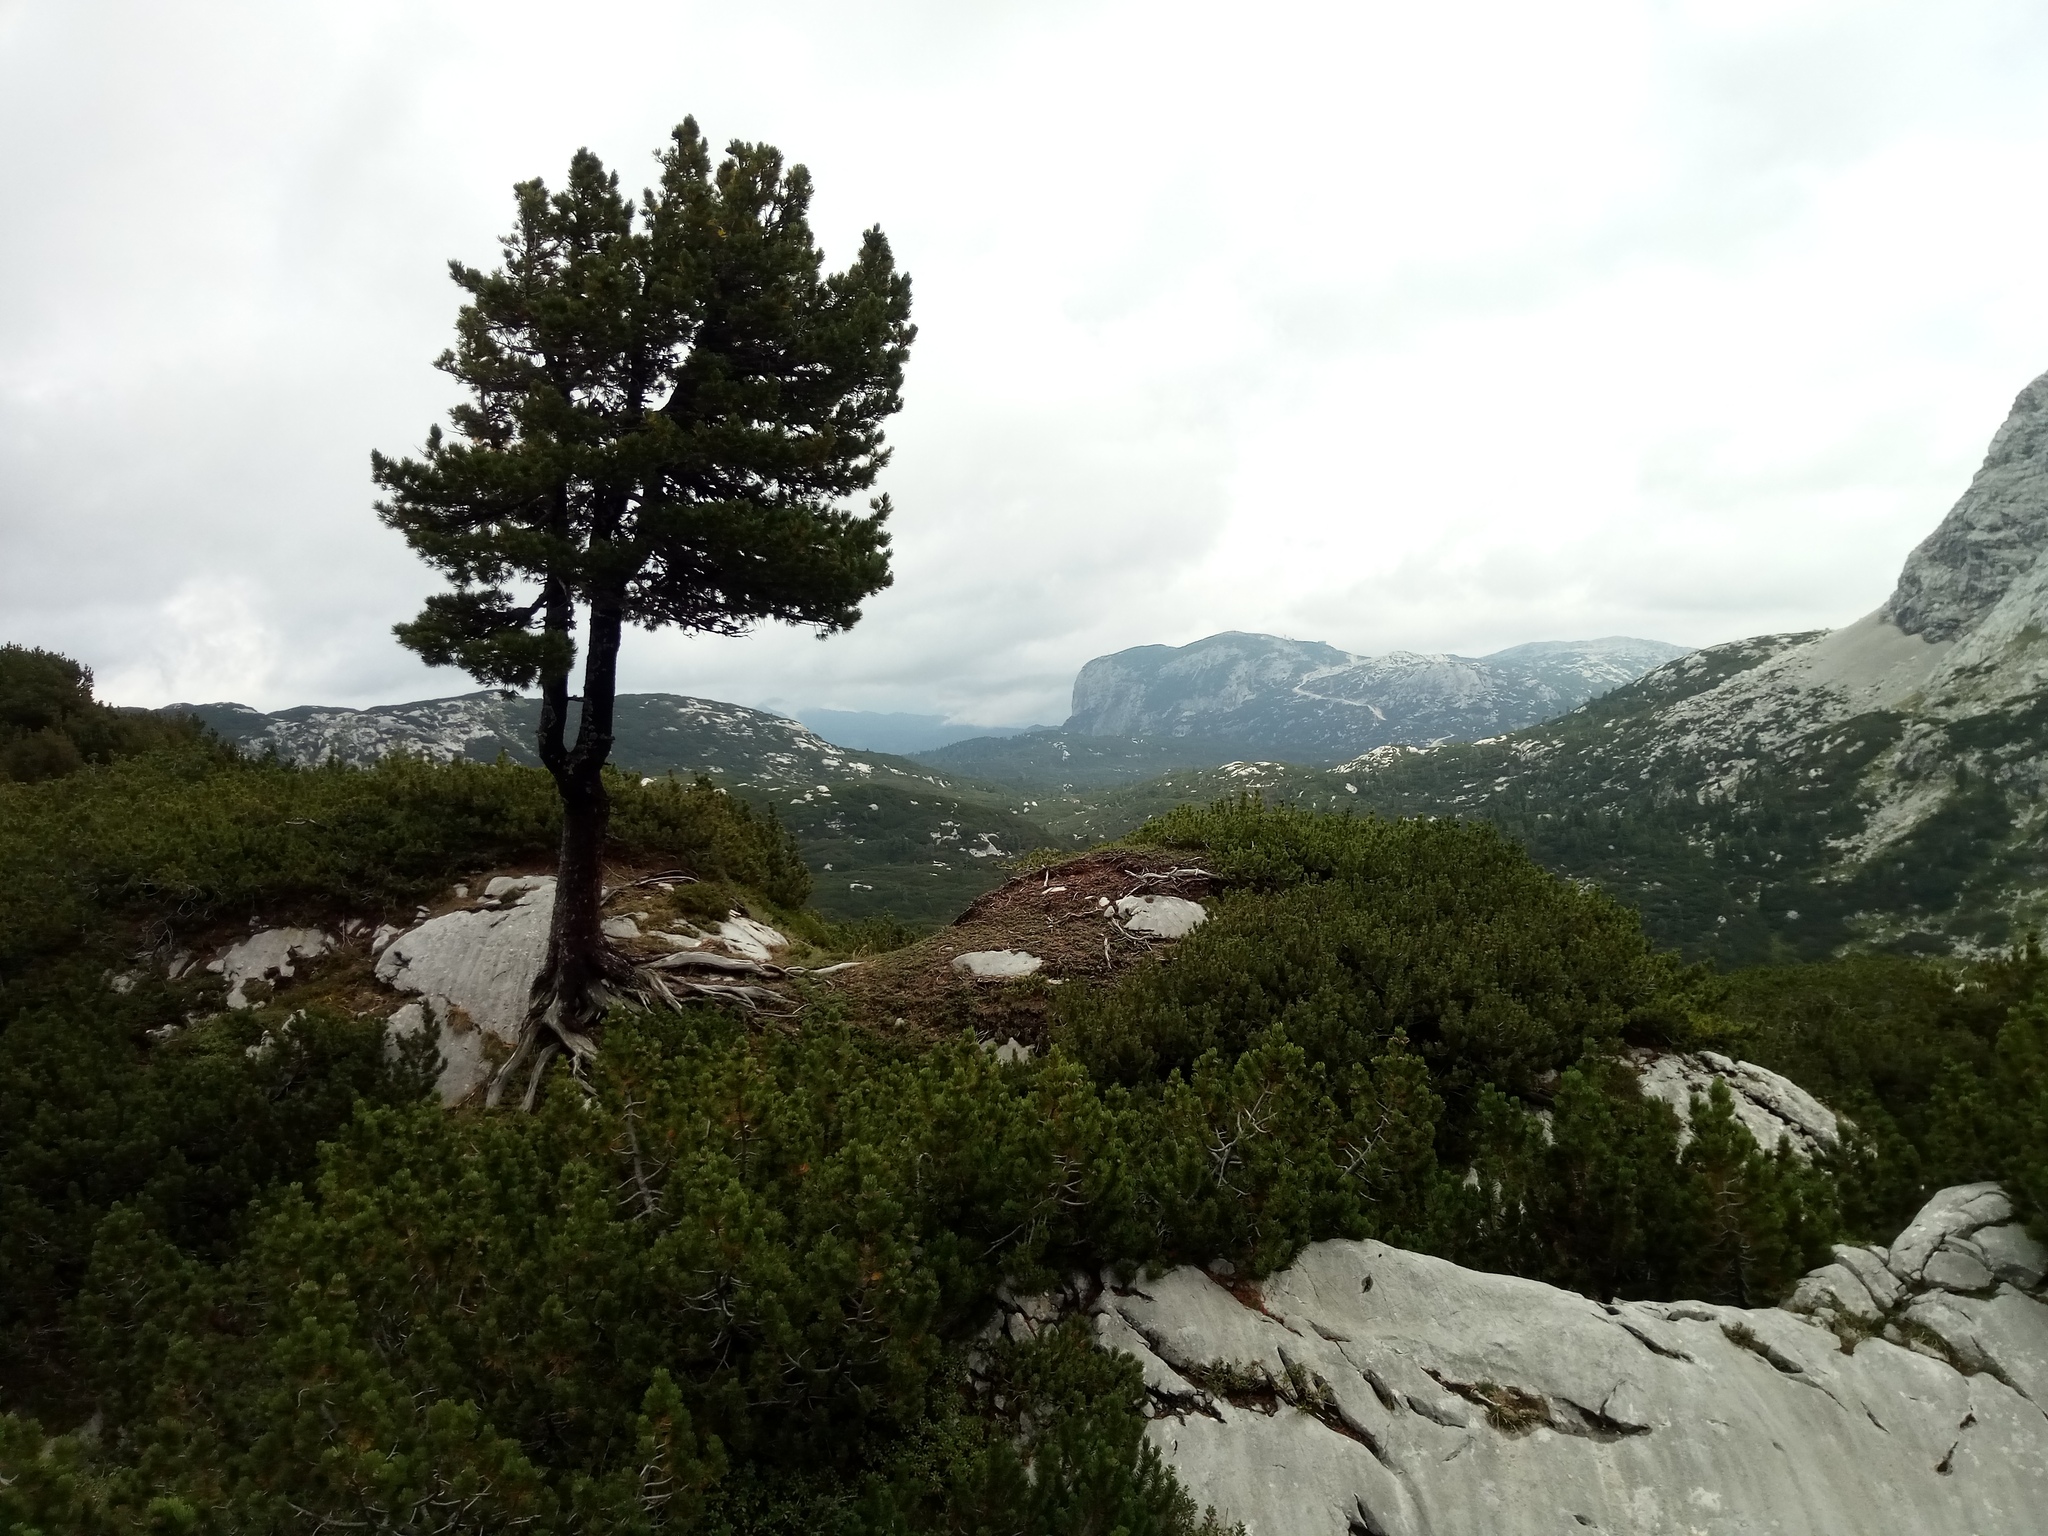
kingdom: Plantae
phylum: Tracheophyta
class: Pinopsida
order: Pinales
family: Pinaceae
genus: Pinus
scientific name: Pinus cembra
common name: Arolla pine
